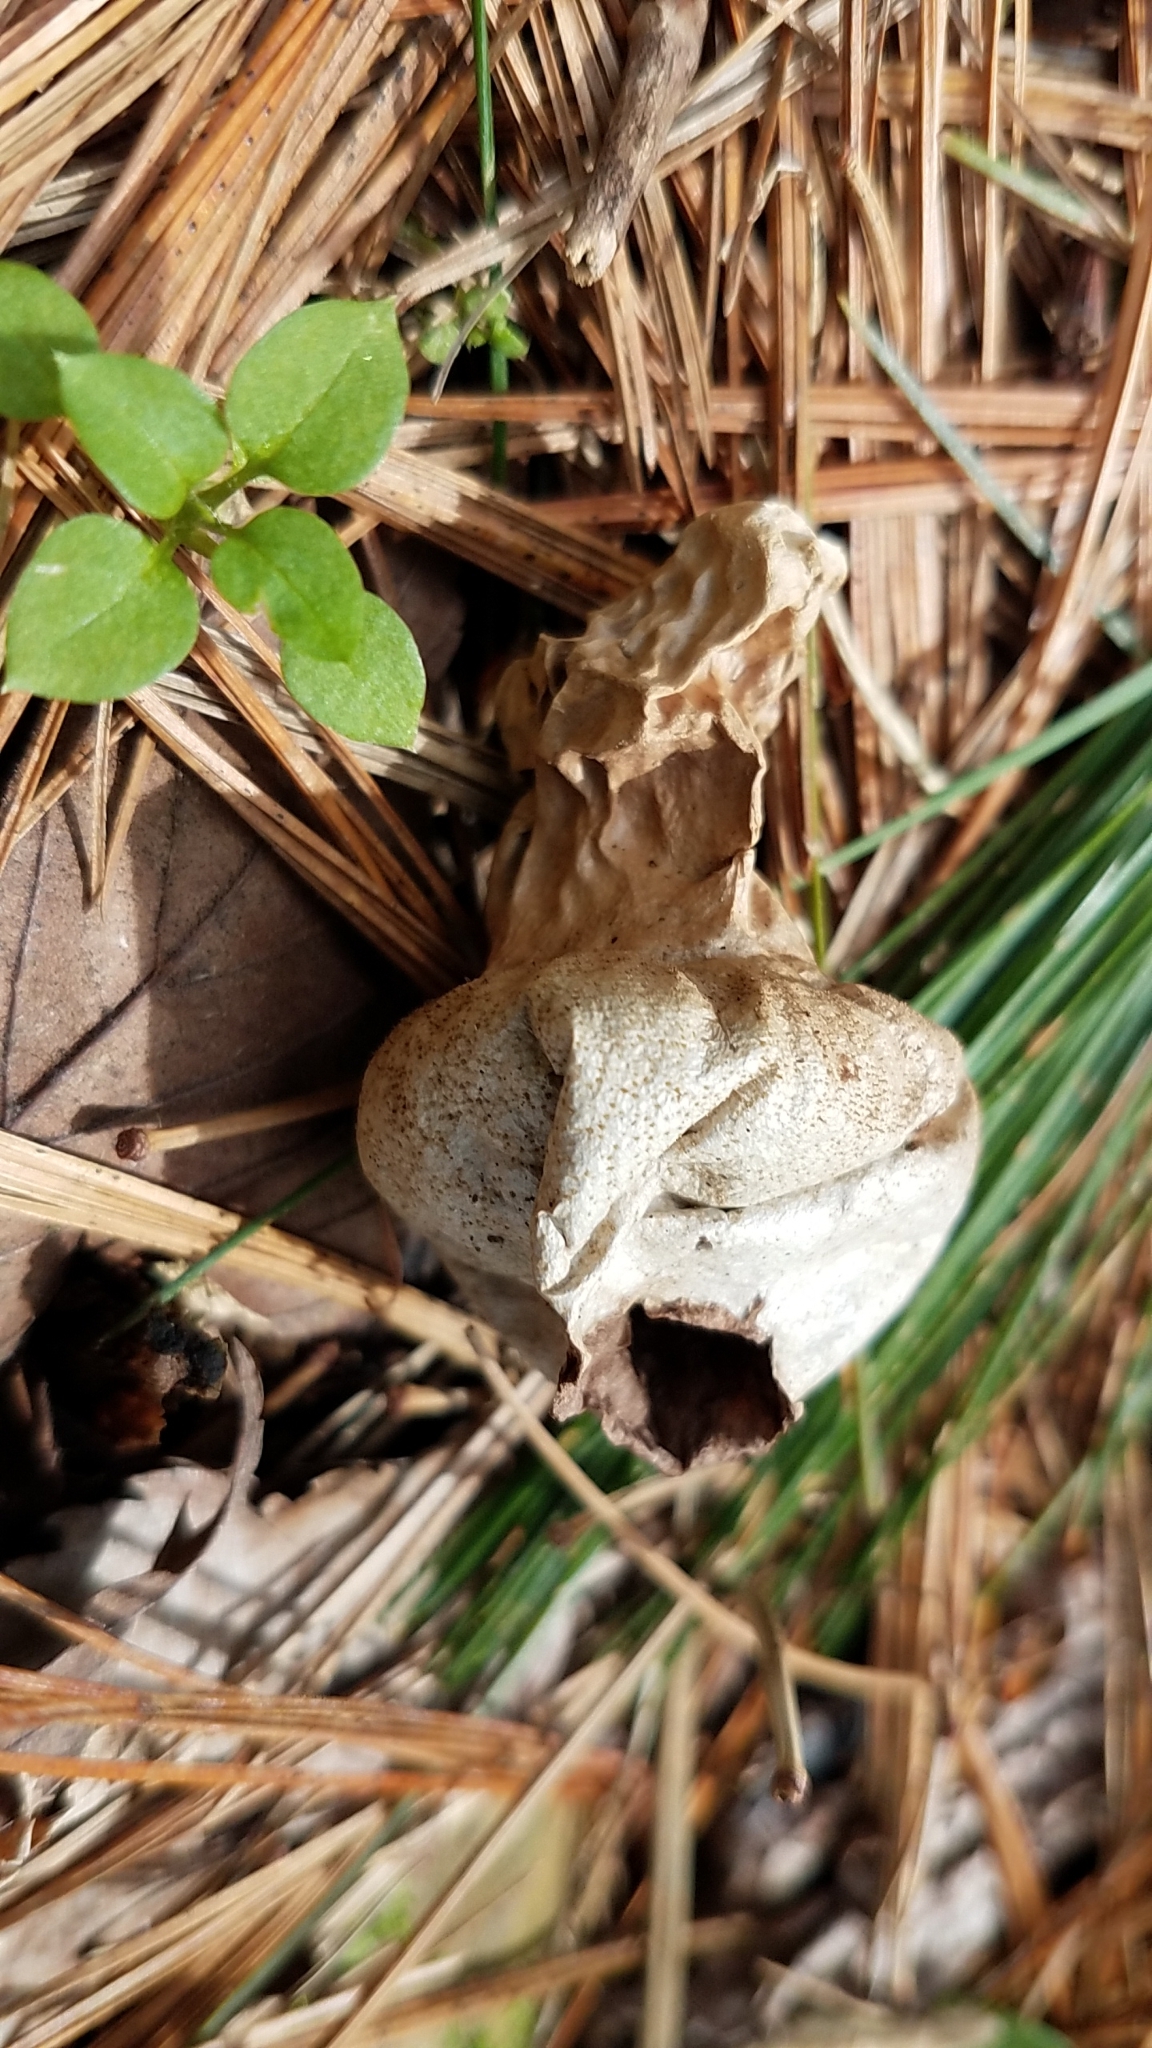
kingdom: Fungi
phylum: Basidiomycota
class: Agaricomycetes
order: Agaricales
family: Lycoperdaceae
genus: Apioperdon
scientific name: Apioperdon pyriforme
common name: Pear-shaped puffball
